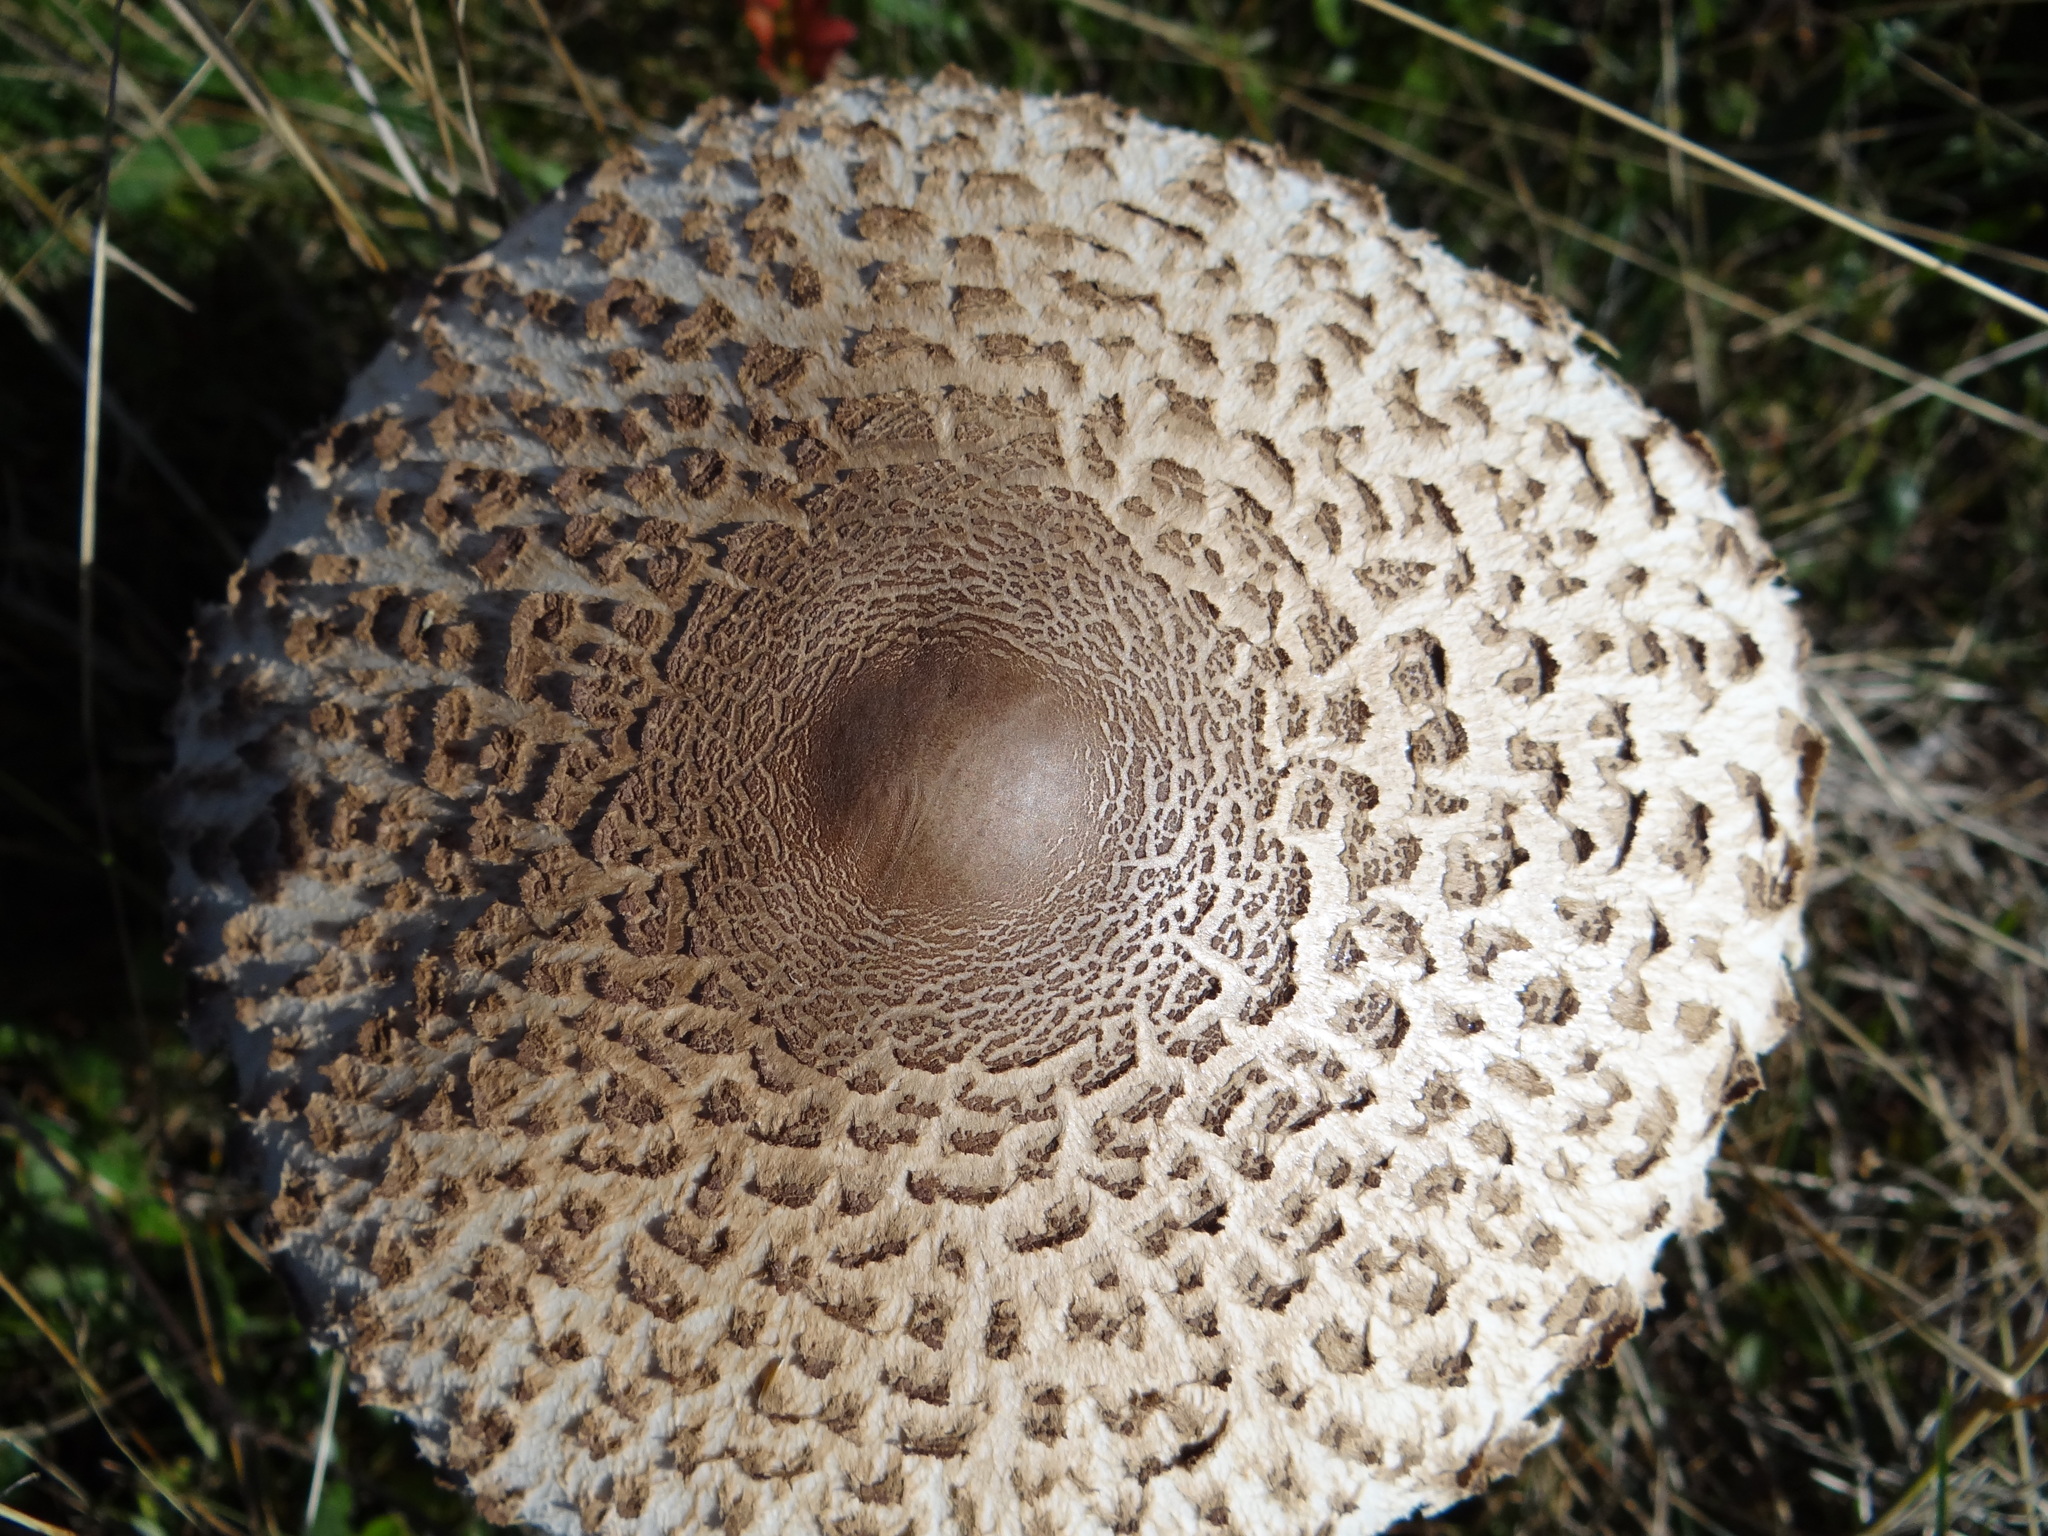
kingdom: Fungi
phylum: Basidiomycota
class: Agaricomycetes
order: Agaricales
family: Agaricaceae
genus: Macrolepiota
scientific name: Macrolepiota procera
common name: Parasol
